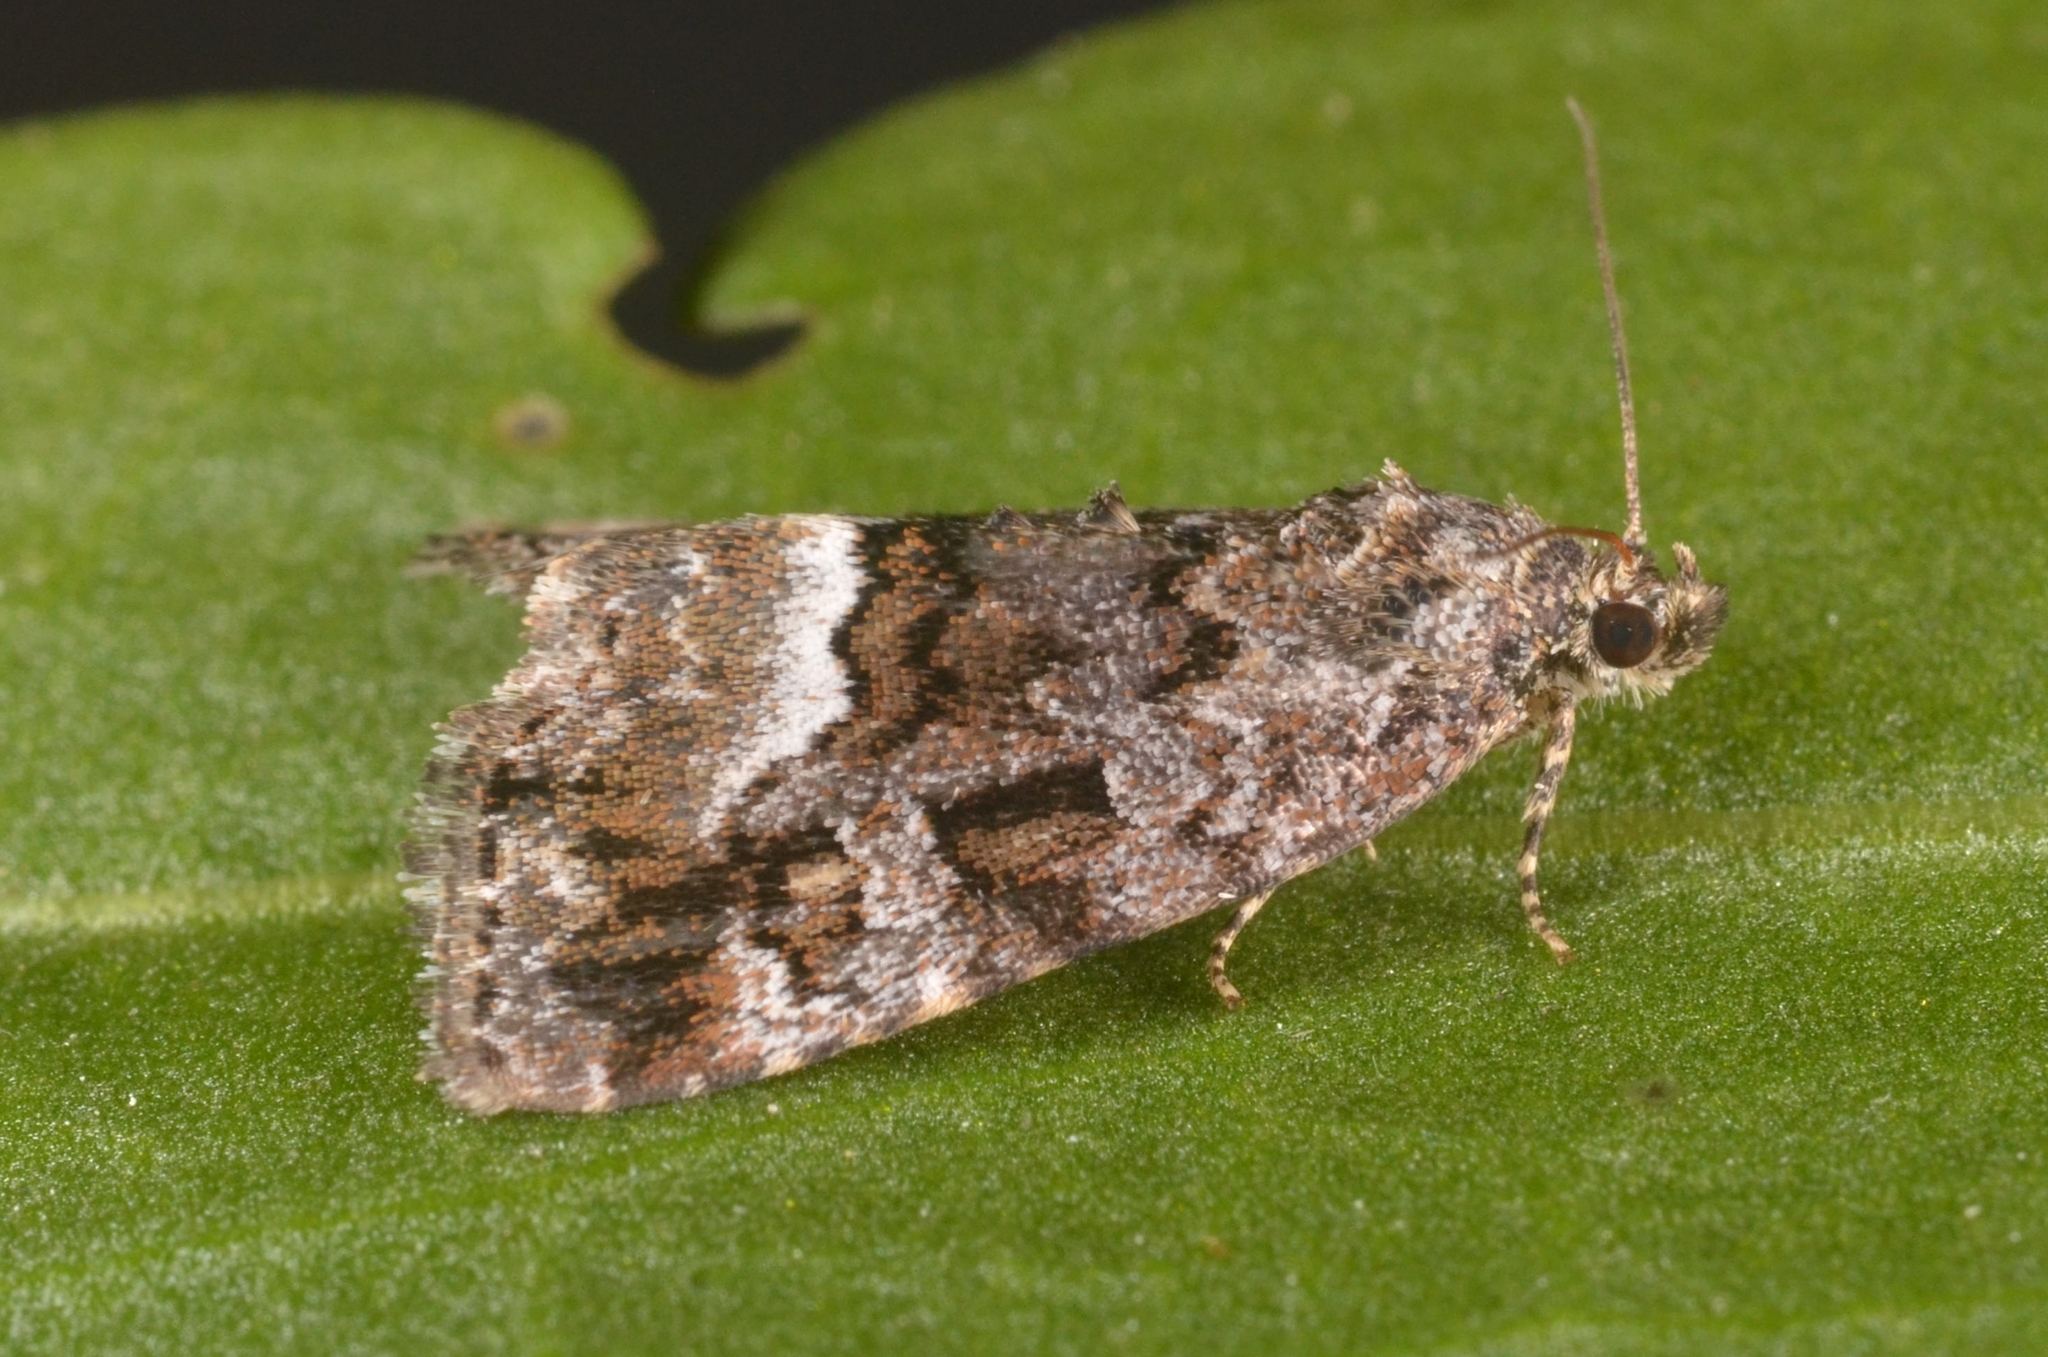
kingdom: Animalia
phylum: Arthropoda
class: Insecta
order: Lepidoptera
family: Noctuidae
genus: Deltote
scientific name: Deltote pygarga
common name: Marbled white spot
